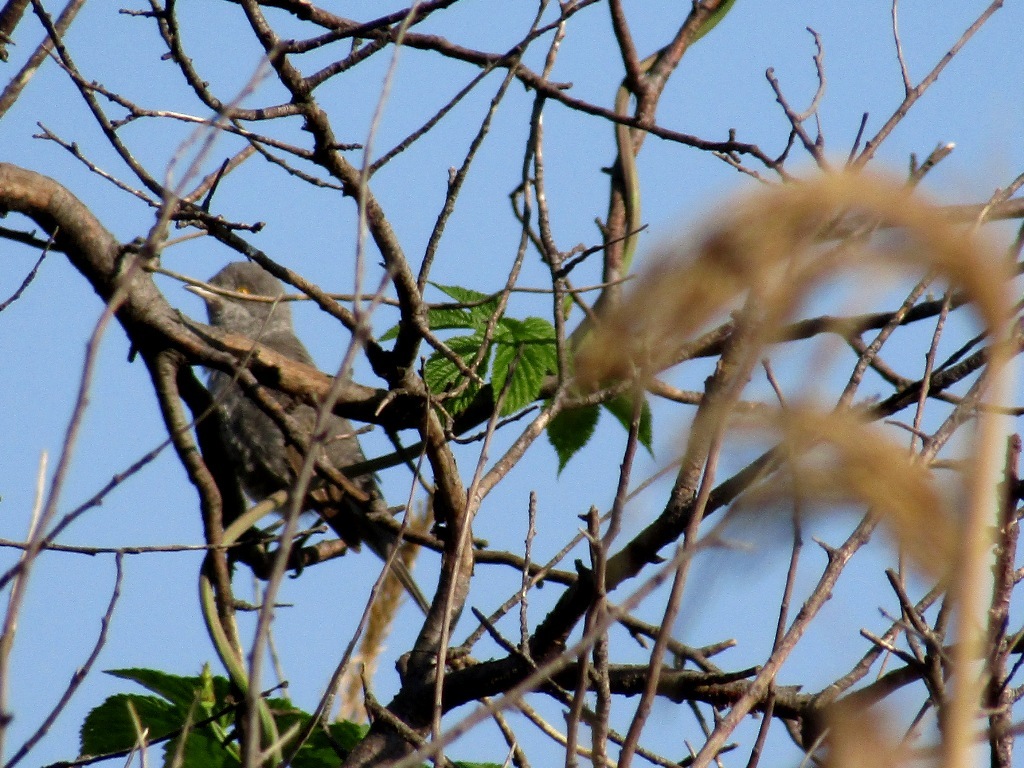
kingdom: Animalia
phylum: Chordata
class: Aves
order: Passeriformes
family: Sylviidae
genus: Sylvia
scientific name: Sylvia nisoria
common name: Barred warbler
